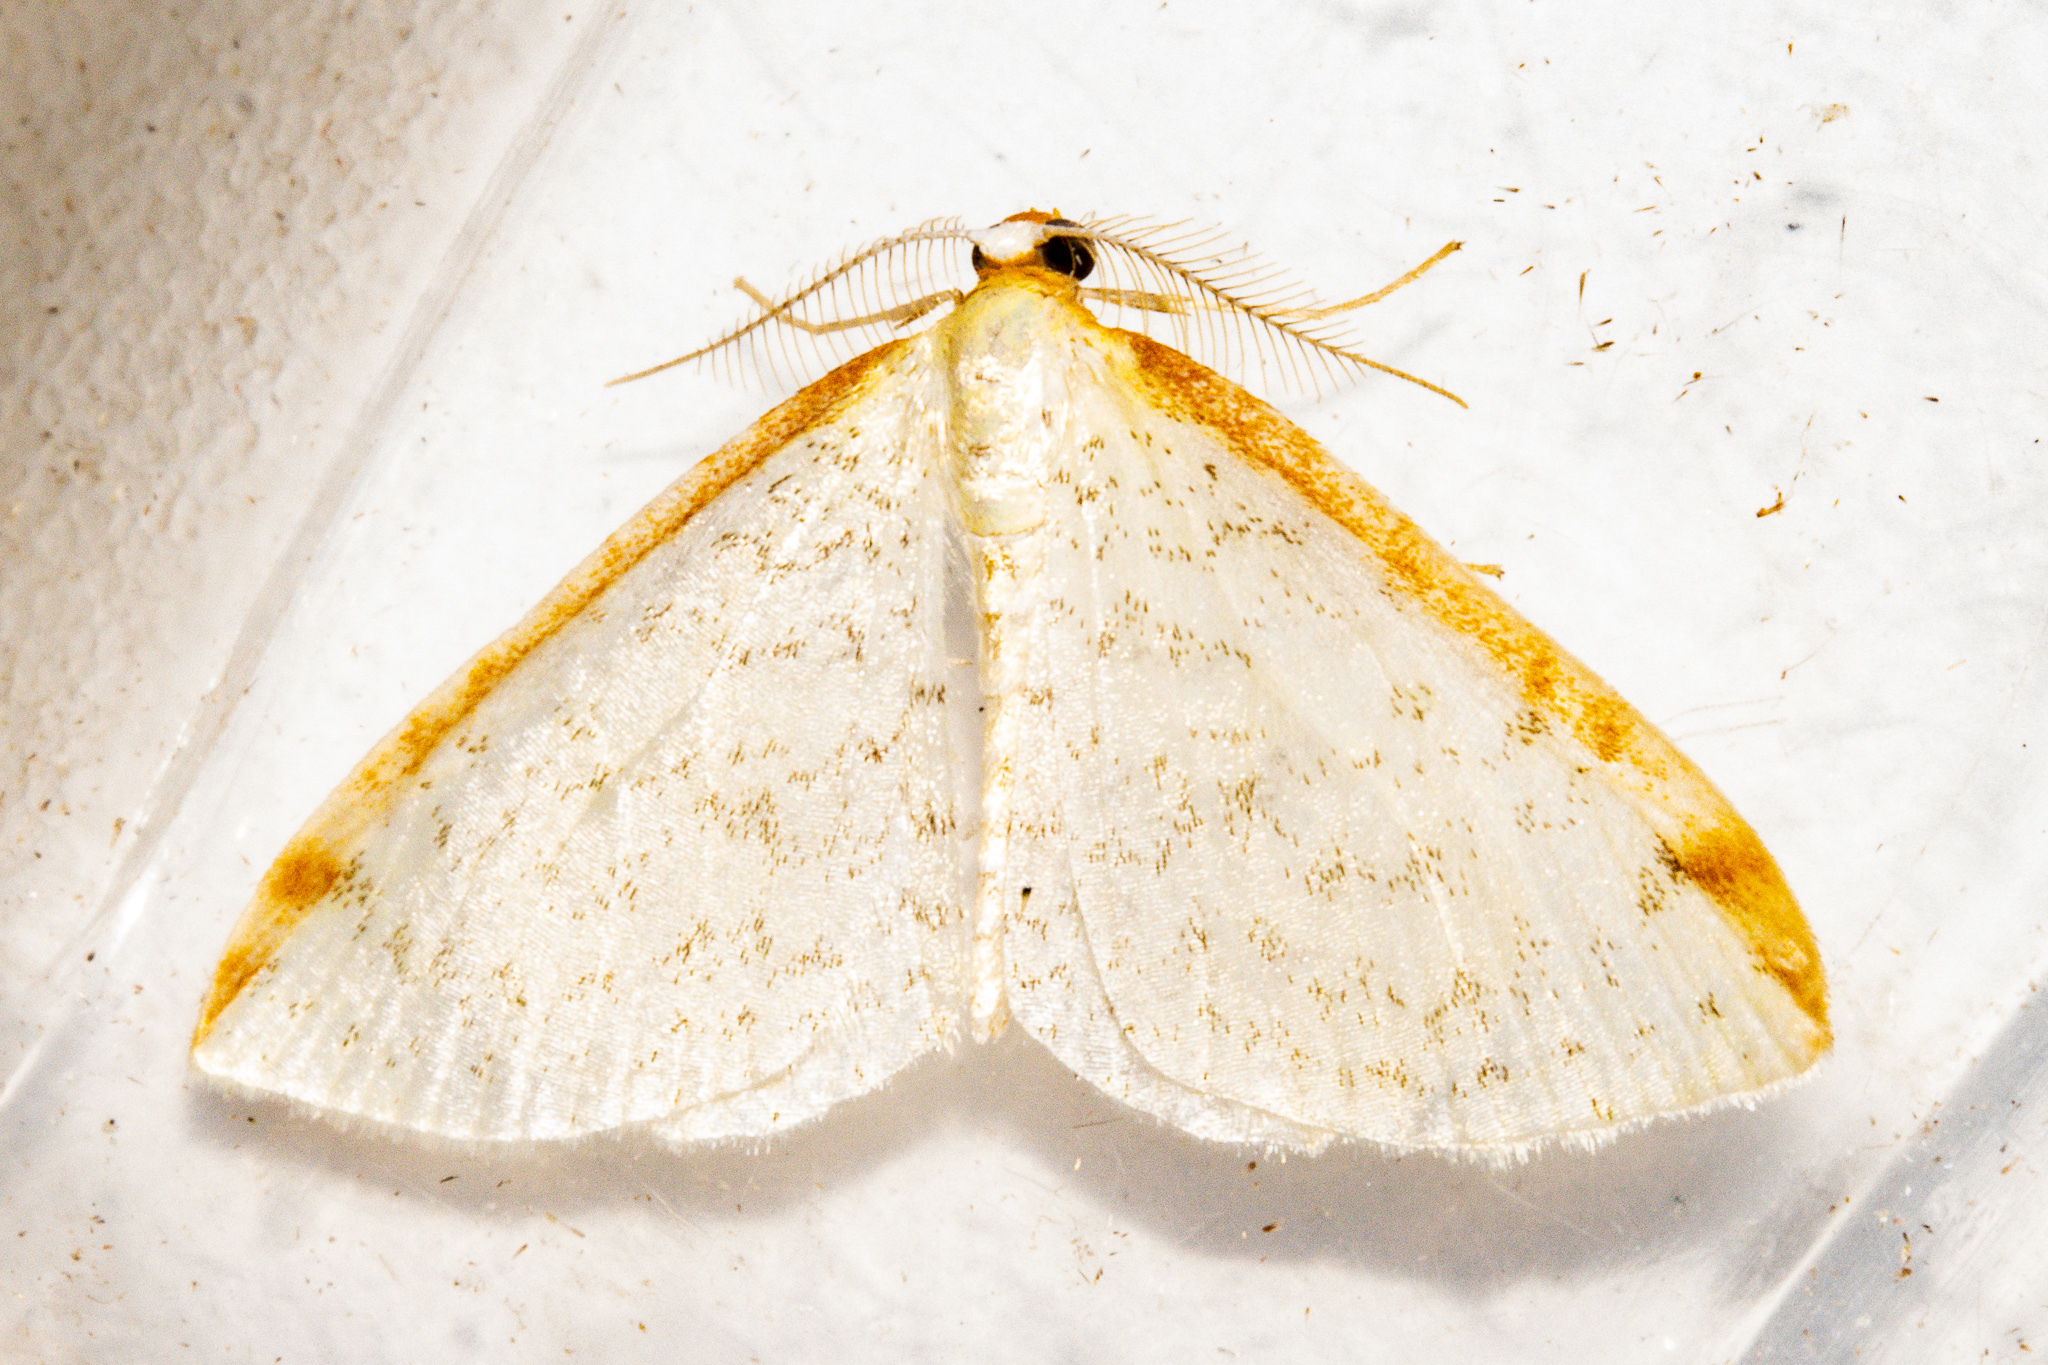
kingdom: Animalia
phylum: Arthropoda
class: Insecta
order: Lepidoptera
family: Geometridae
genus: Epiphryne
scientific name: Epiphryne undosata
